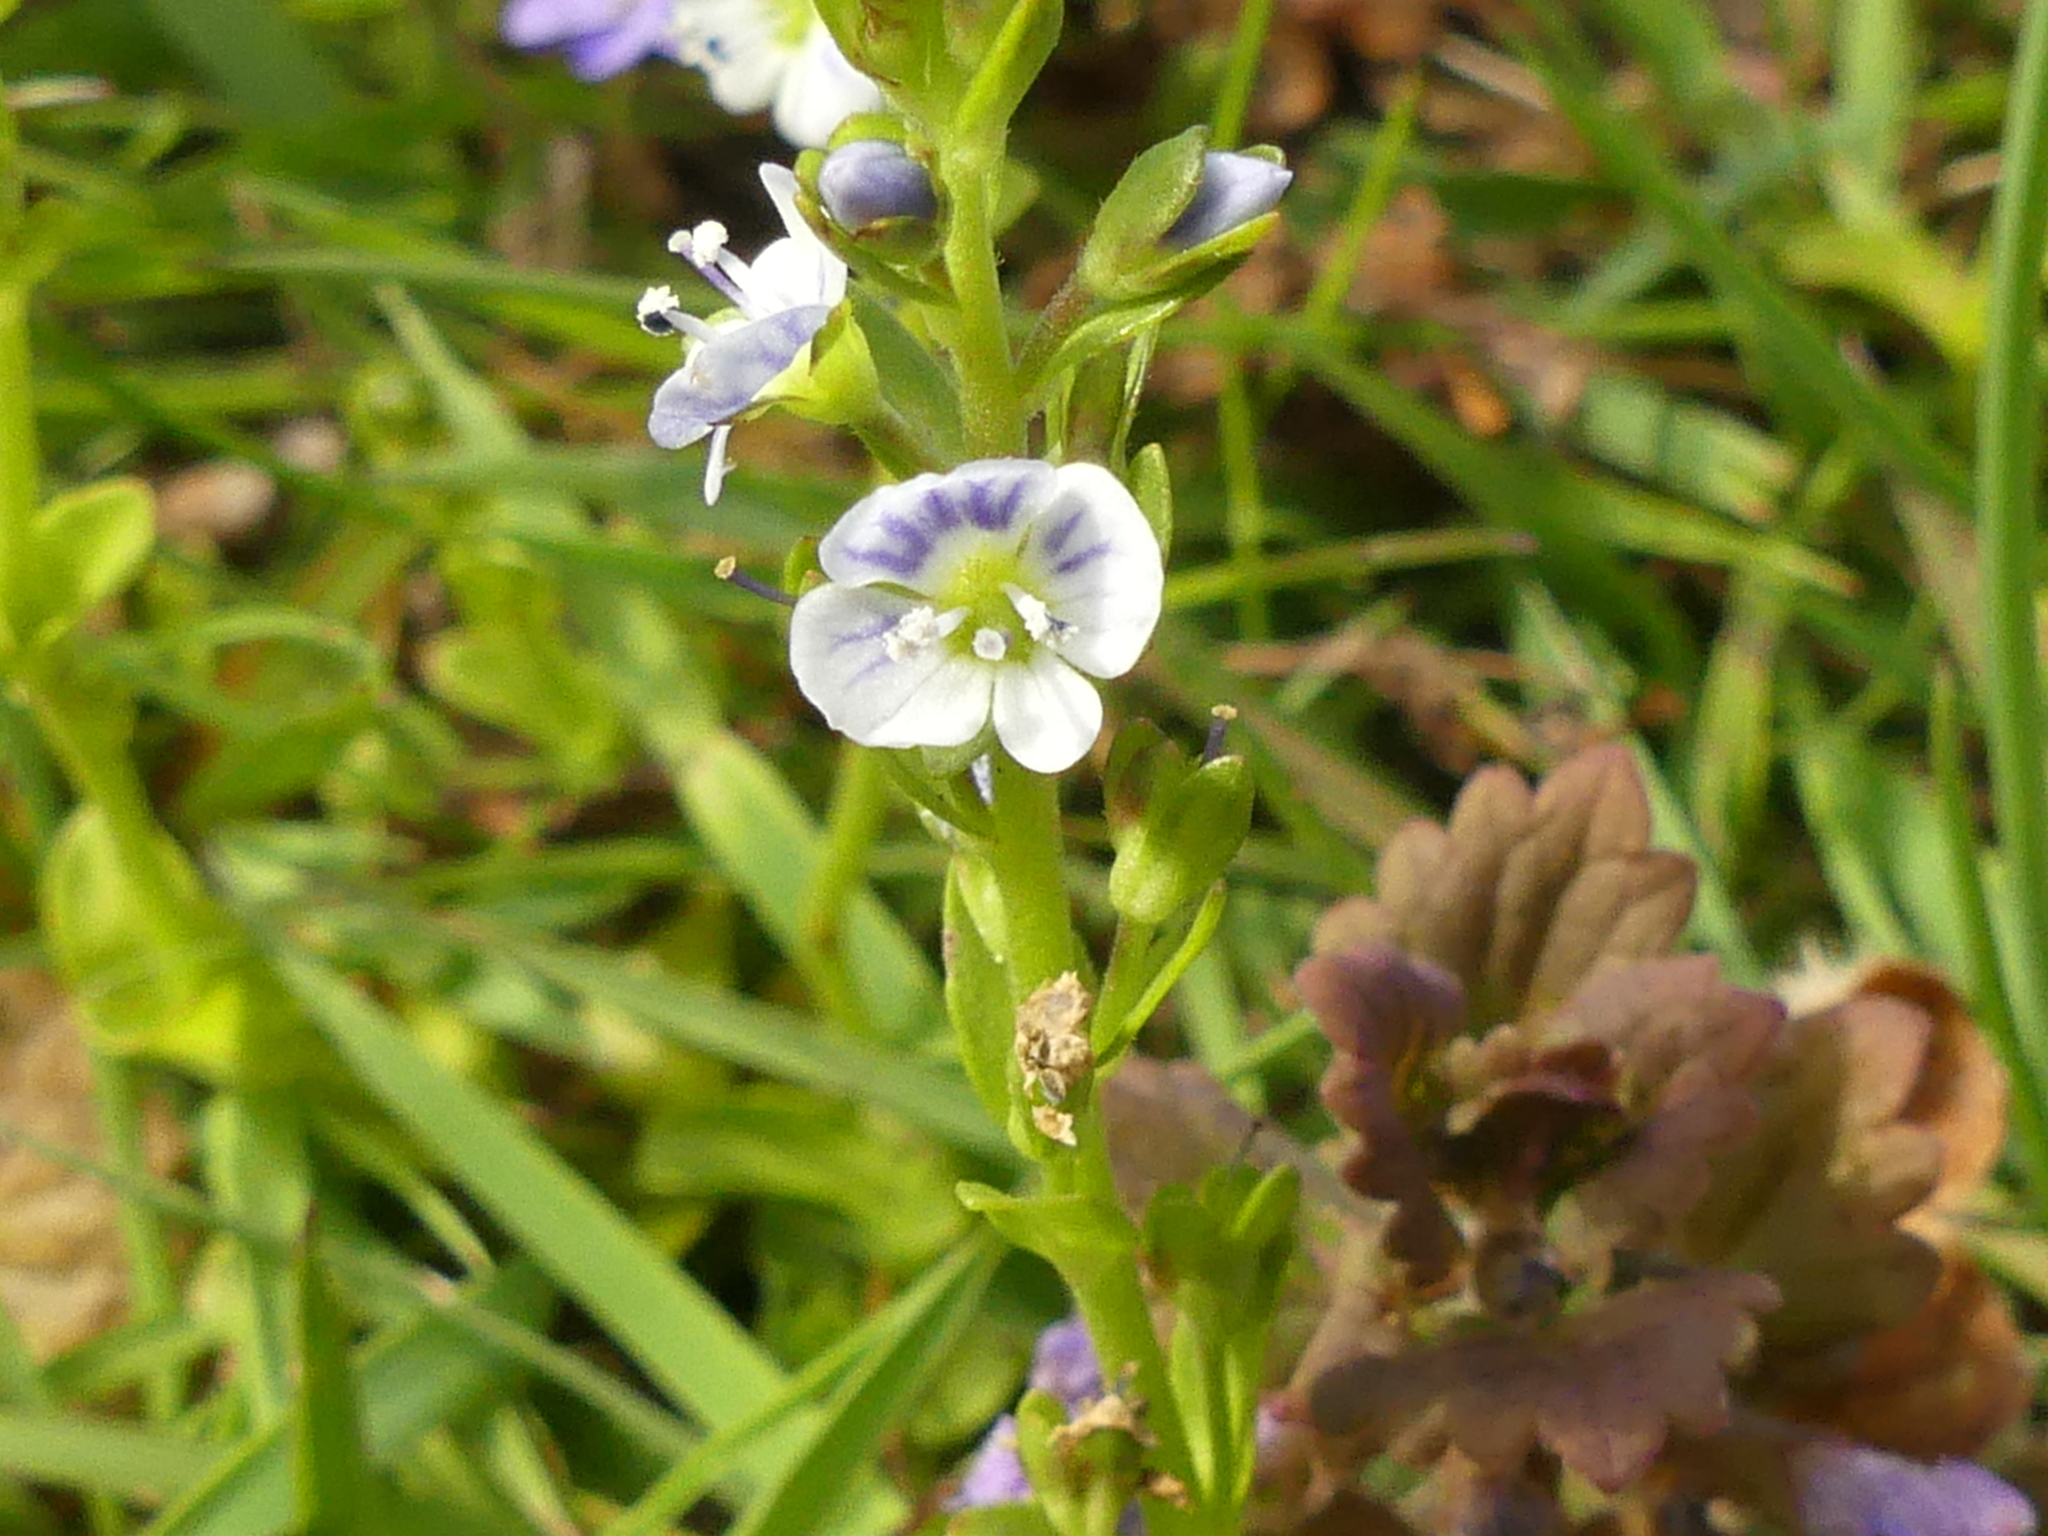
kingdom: Plantae
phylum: Tracheophyta
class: Magnoliopsida
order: Lamiales
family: Plantaginaceae
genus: Veronica
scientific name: Veronica serpyllifolia
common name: Thyme-leaved speedwell
